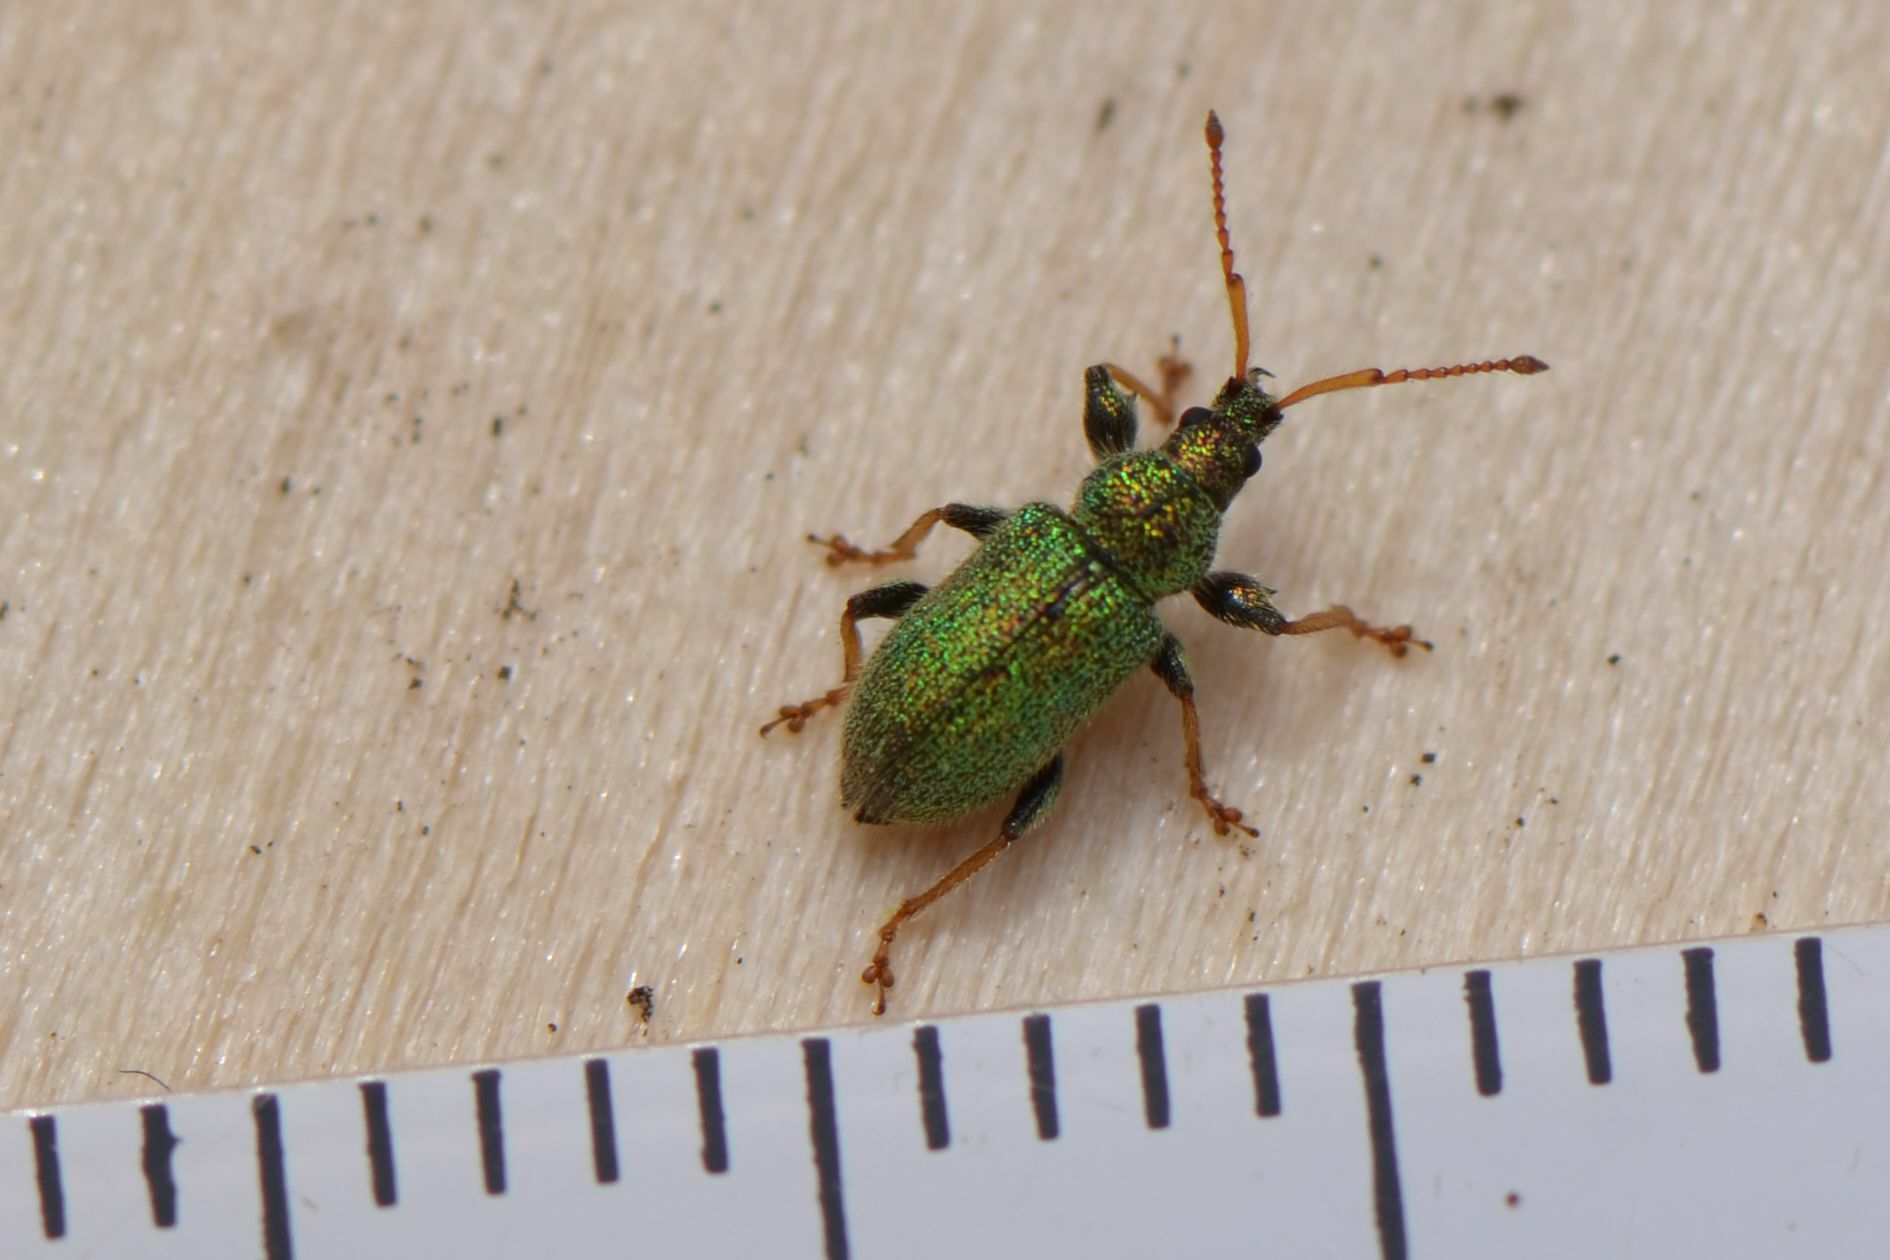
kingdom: Animalia
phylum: Arthropoda
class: Insecta
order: Coleoptera
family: Curculionidae
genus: Phyllobius
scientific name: Phyllobius betulinus
